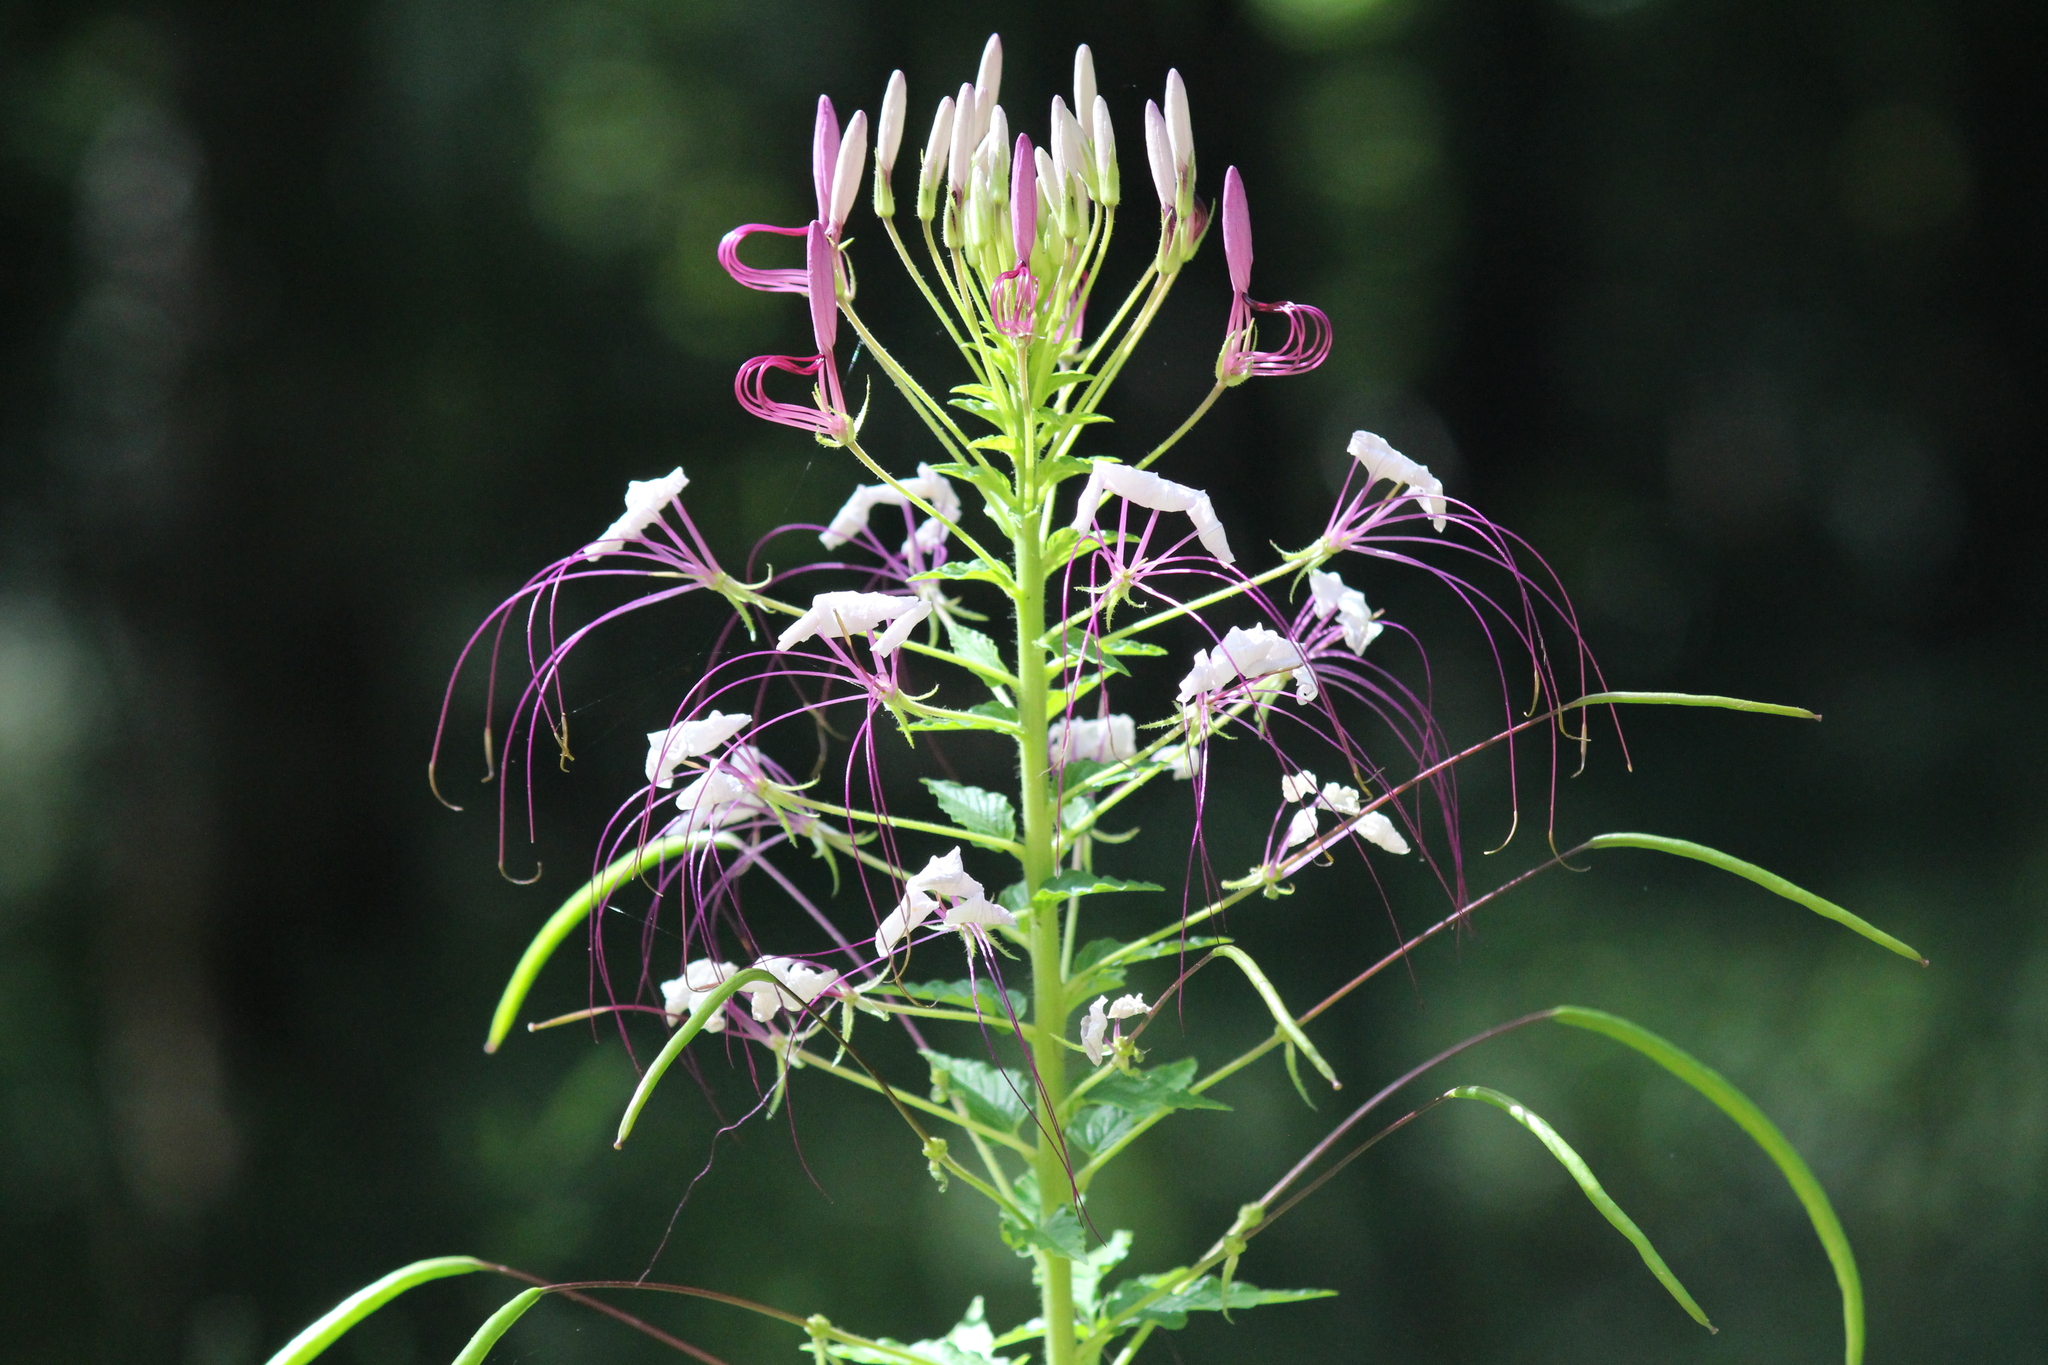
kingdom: Plantae
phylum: Tracheophyta
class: Magnoliopsida
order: Brassicales
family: Cleomaceae
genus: Tarenaya
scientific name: Tarenaya houtteana
